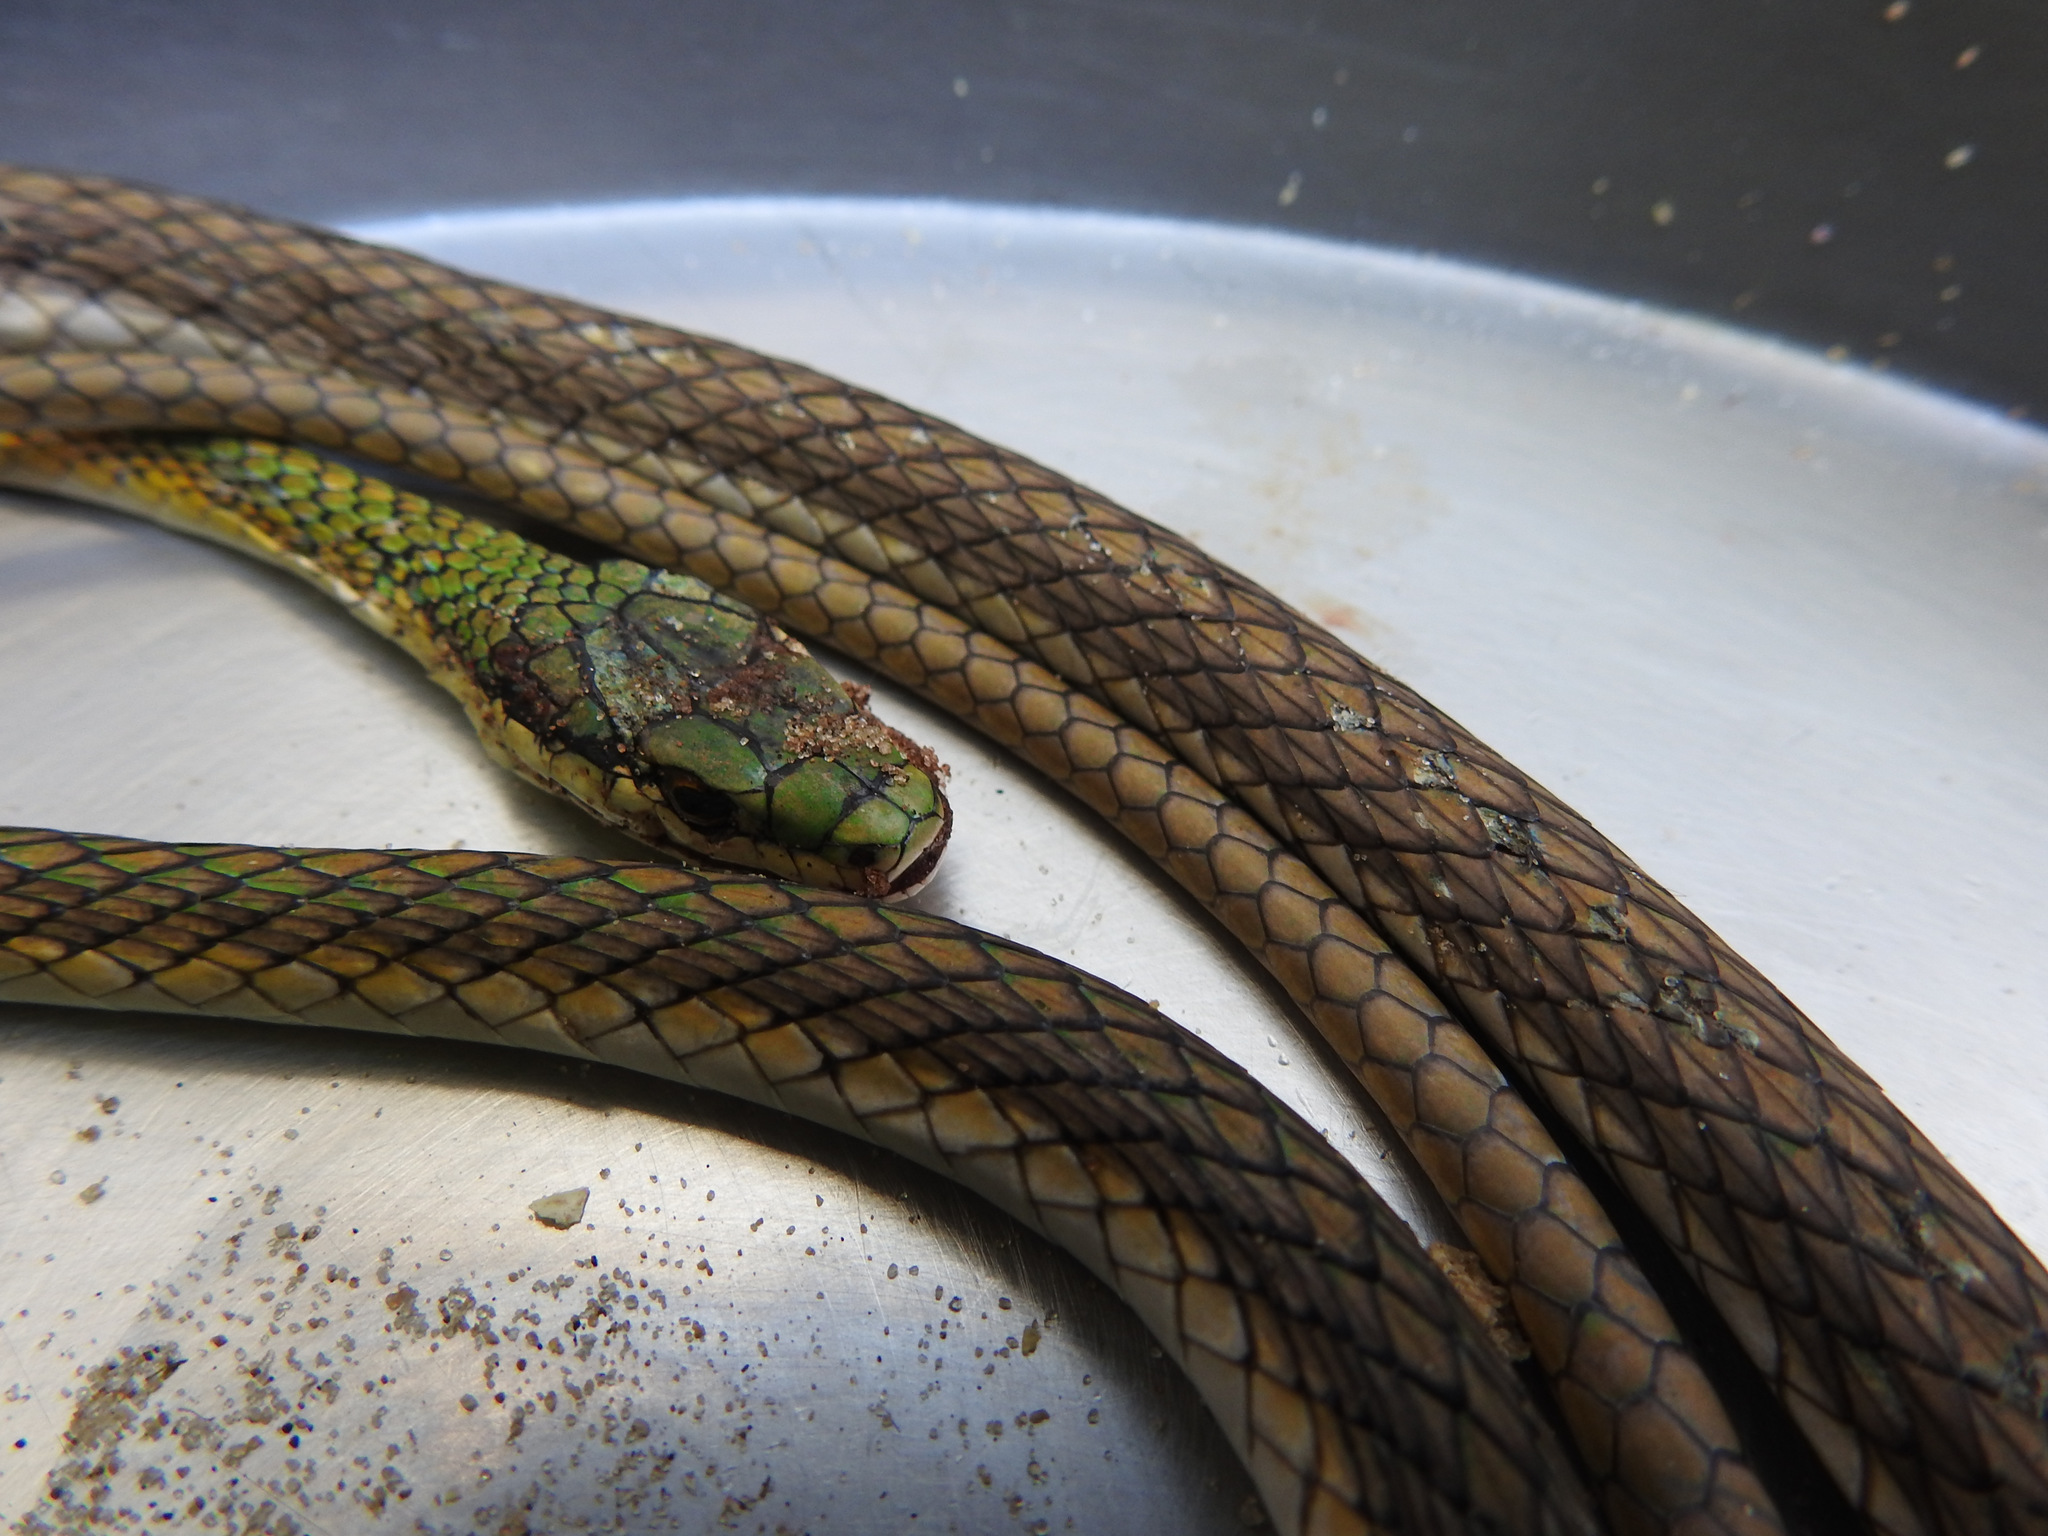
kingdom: Animalia
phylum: Chordata
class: Squamata
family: Colubridae
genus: Leptophis
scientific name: Leptophis ahaetulla
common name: Parrot snake
